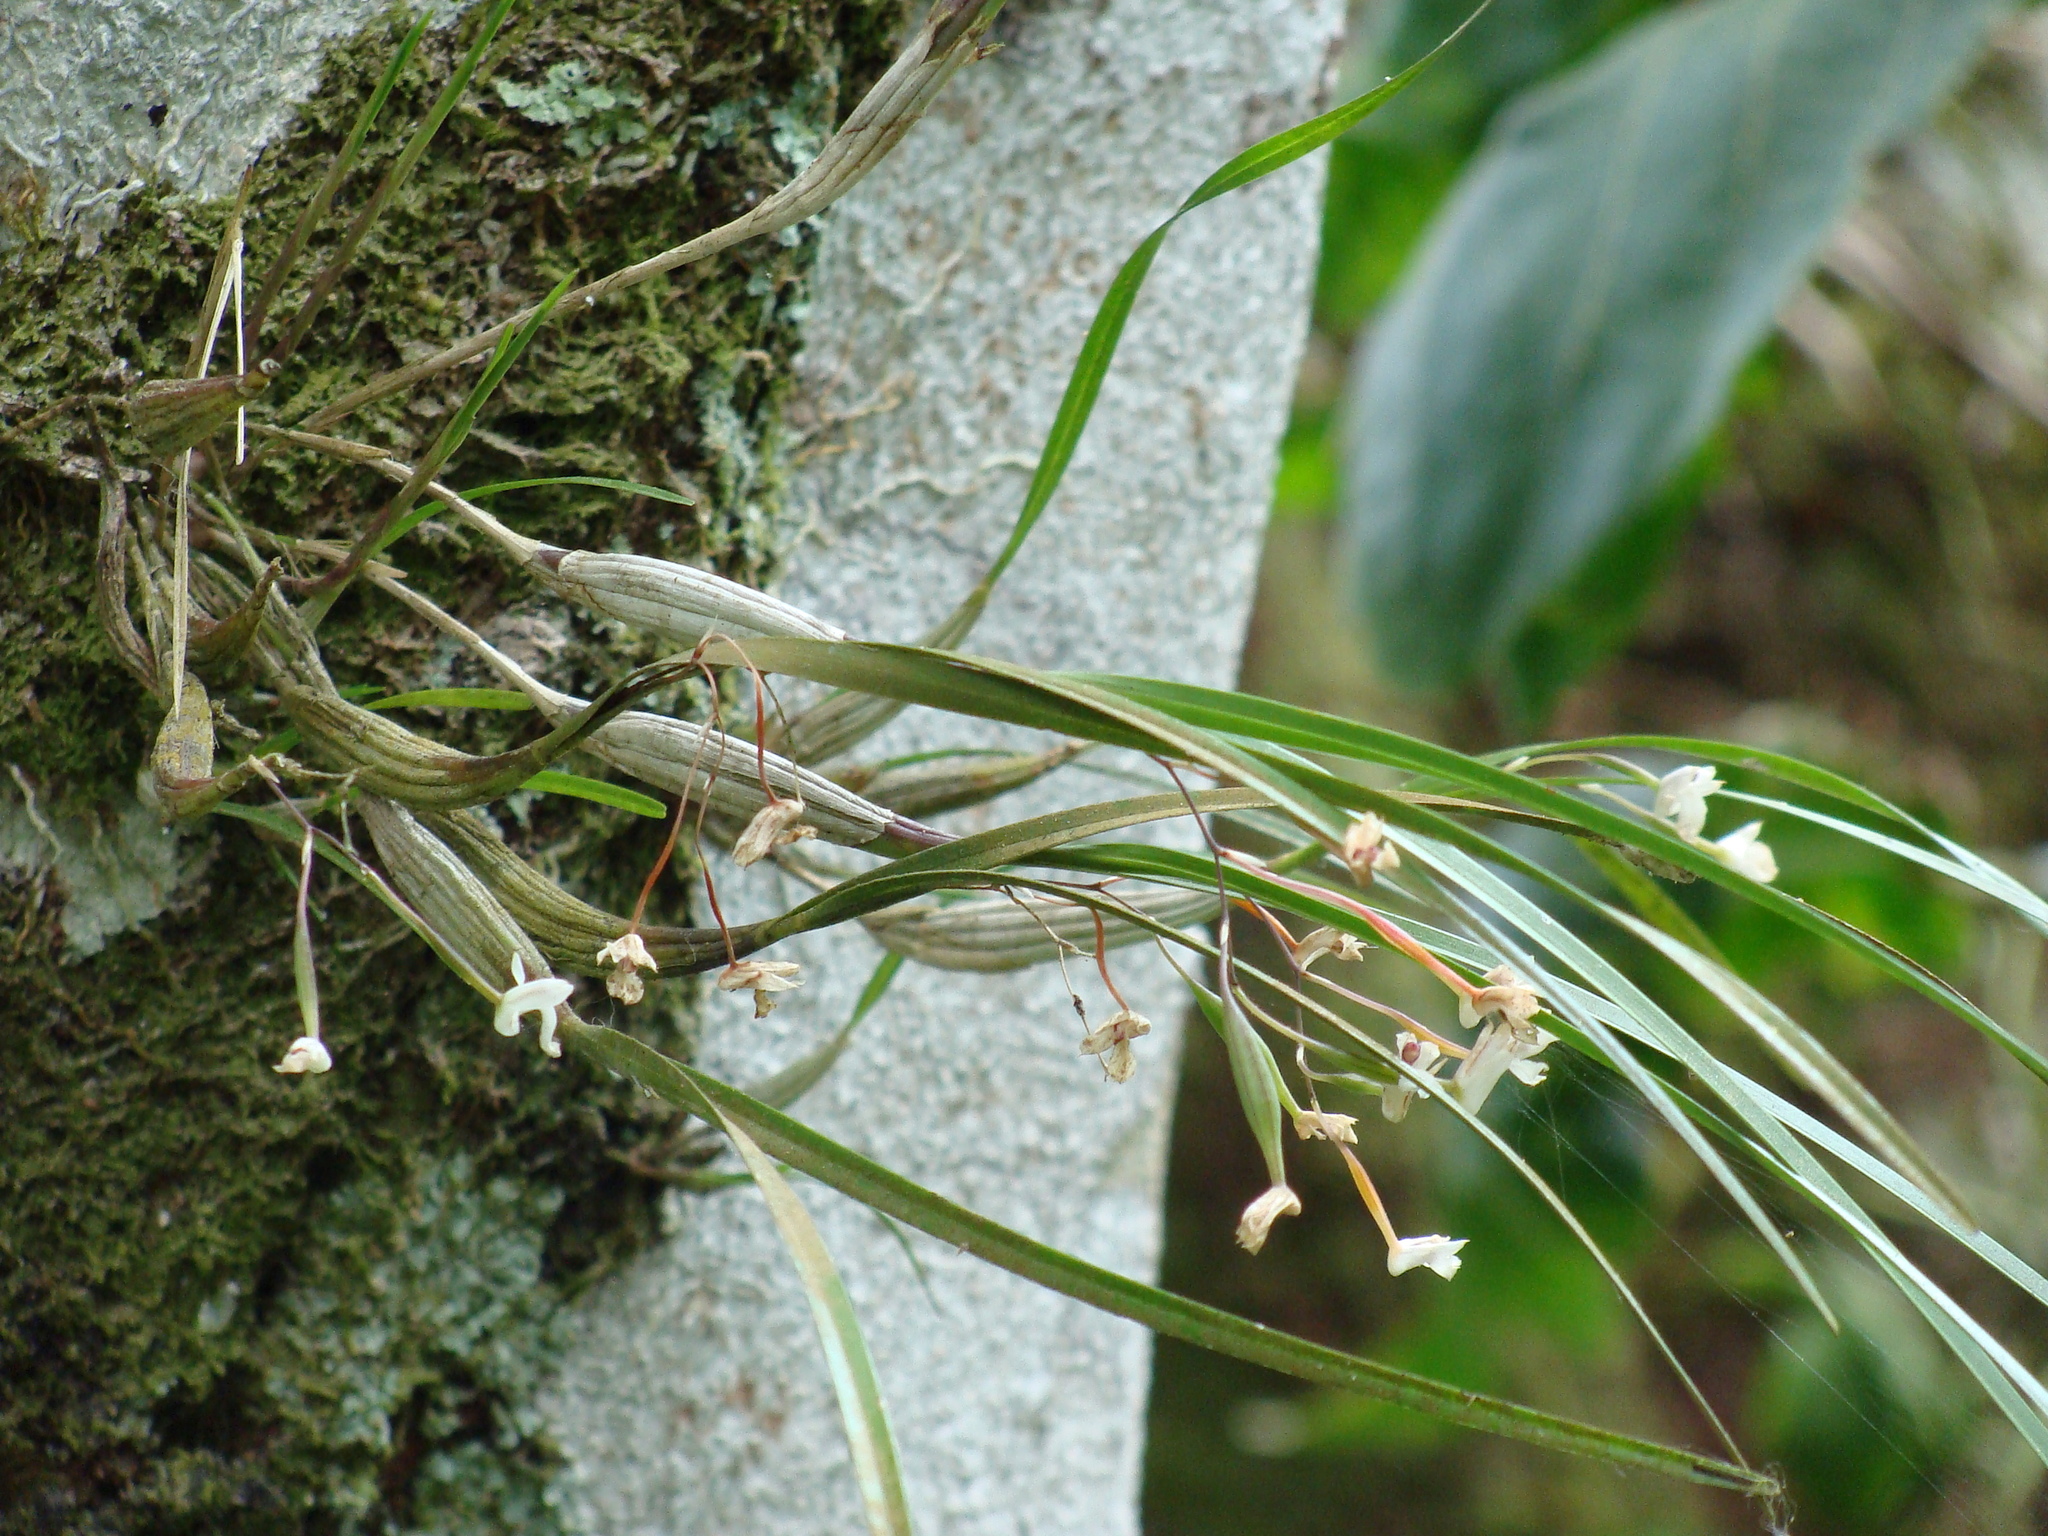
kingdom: Plantae
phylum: Tracheophyta
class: Liliopsida
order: Asparagales
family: Orchidaceae
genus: Scaphyglottis
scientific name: Scaphyglottis crurigera
